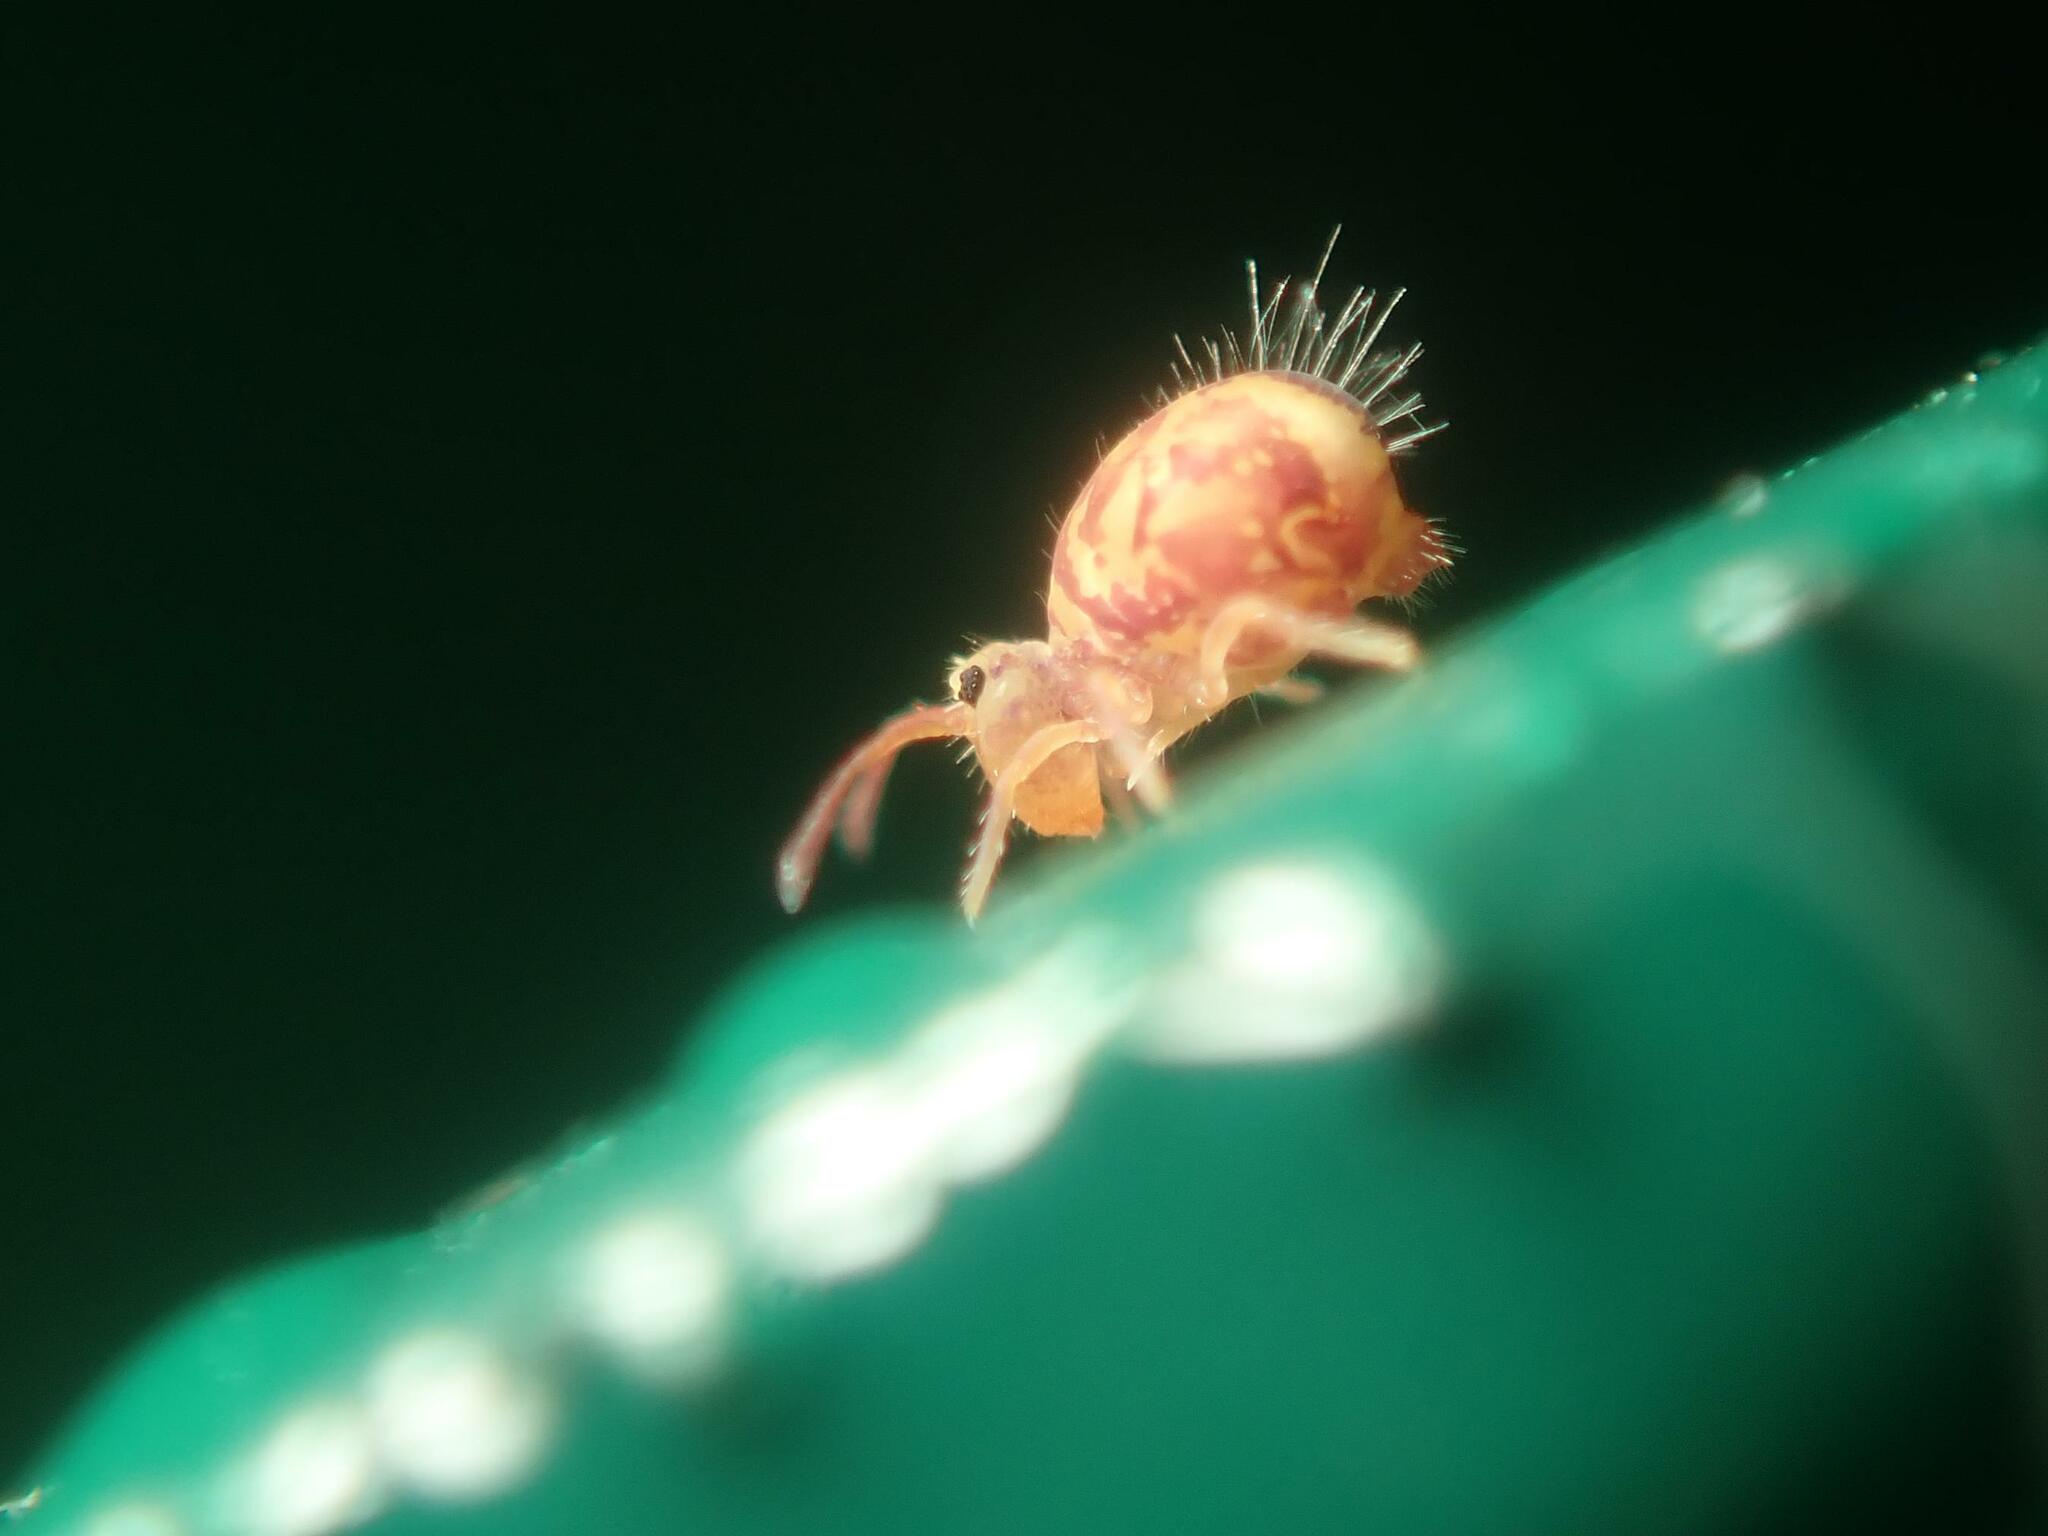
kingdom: Animalia
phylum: Arthropoda
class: Collembola
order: Symphypleona
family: Dicyrtomidae
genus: Dicyrtomina
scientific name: Dicyrtomina ornata
